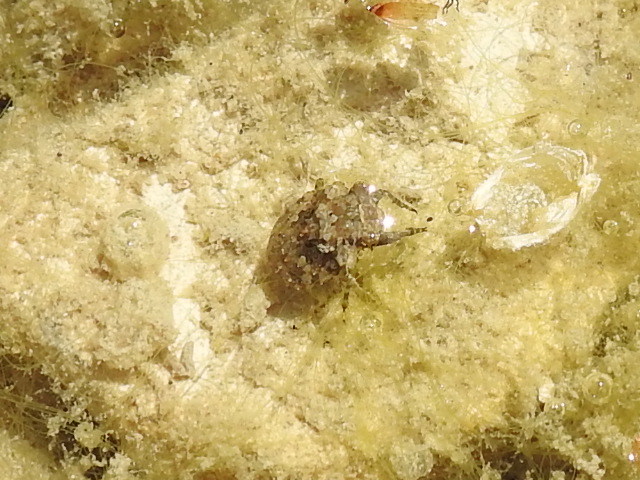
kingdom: Animalia
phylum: Arthropoda
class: Insecta
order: Hemiptera
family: Gelastocoridae
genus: Gelastocoris
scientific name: Gelastocoris oculatus
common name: Toad bug
